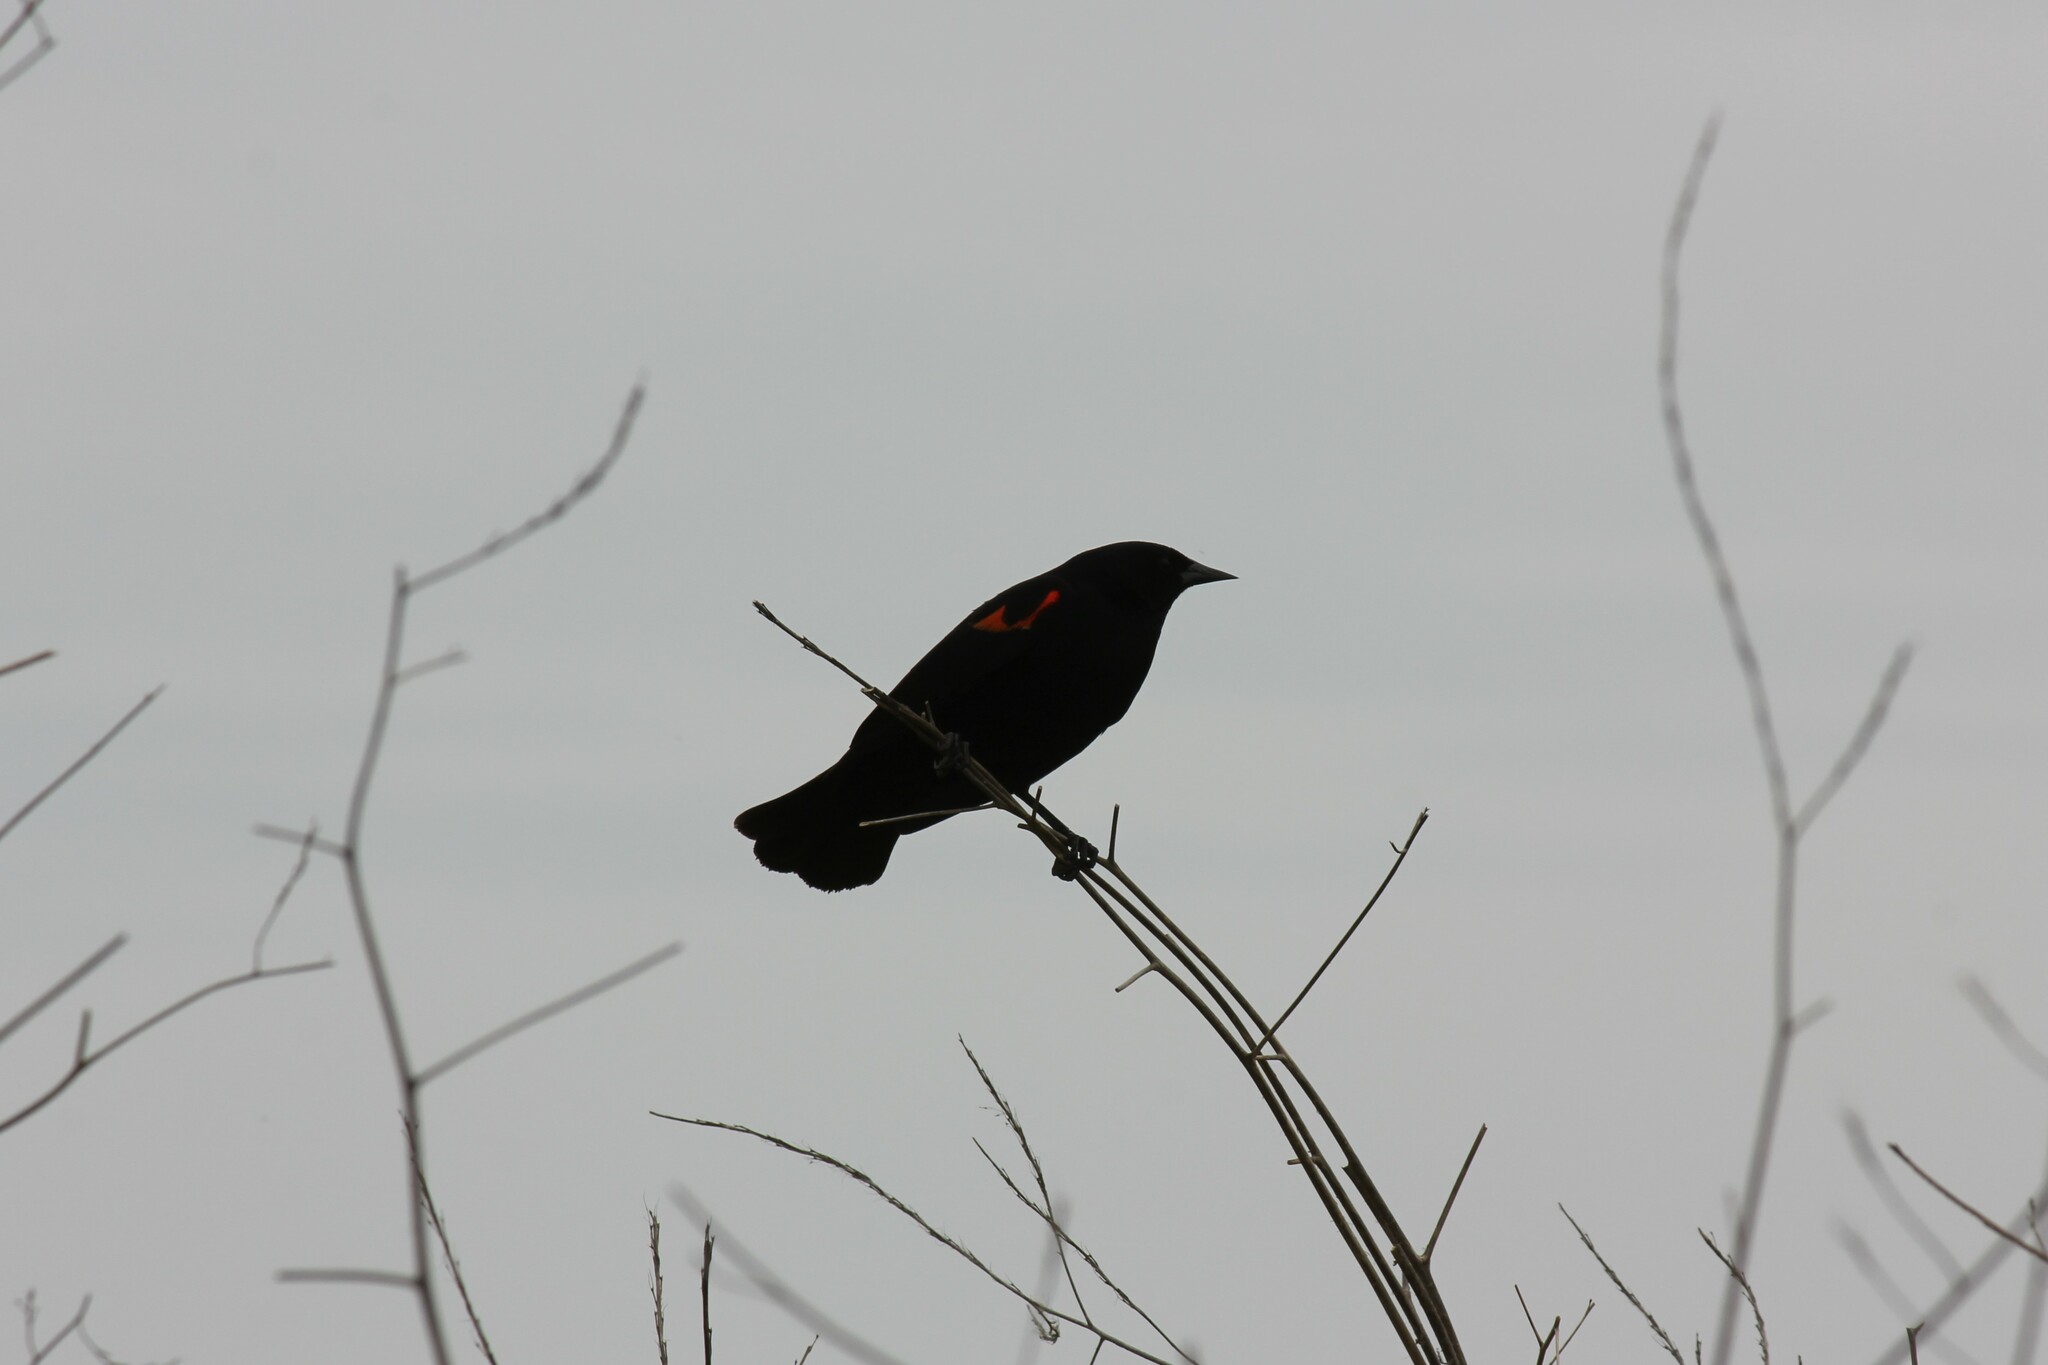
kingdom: Animalia
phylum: Chordata
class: Aves
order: Passeriformes
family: Icteridae
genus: Agelaius
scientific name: Agelaius phoeniceus
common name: Red-winged blackbird
